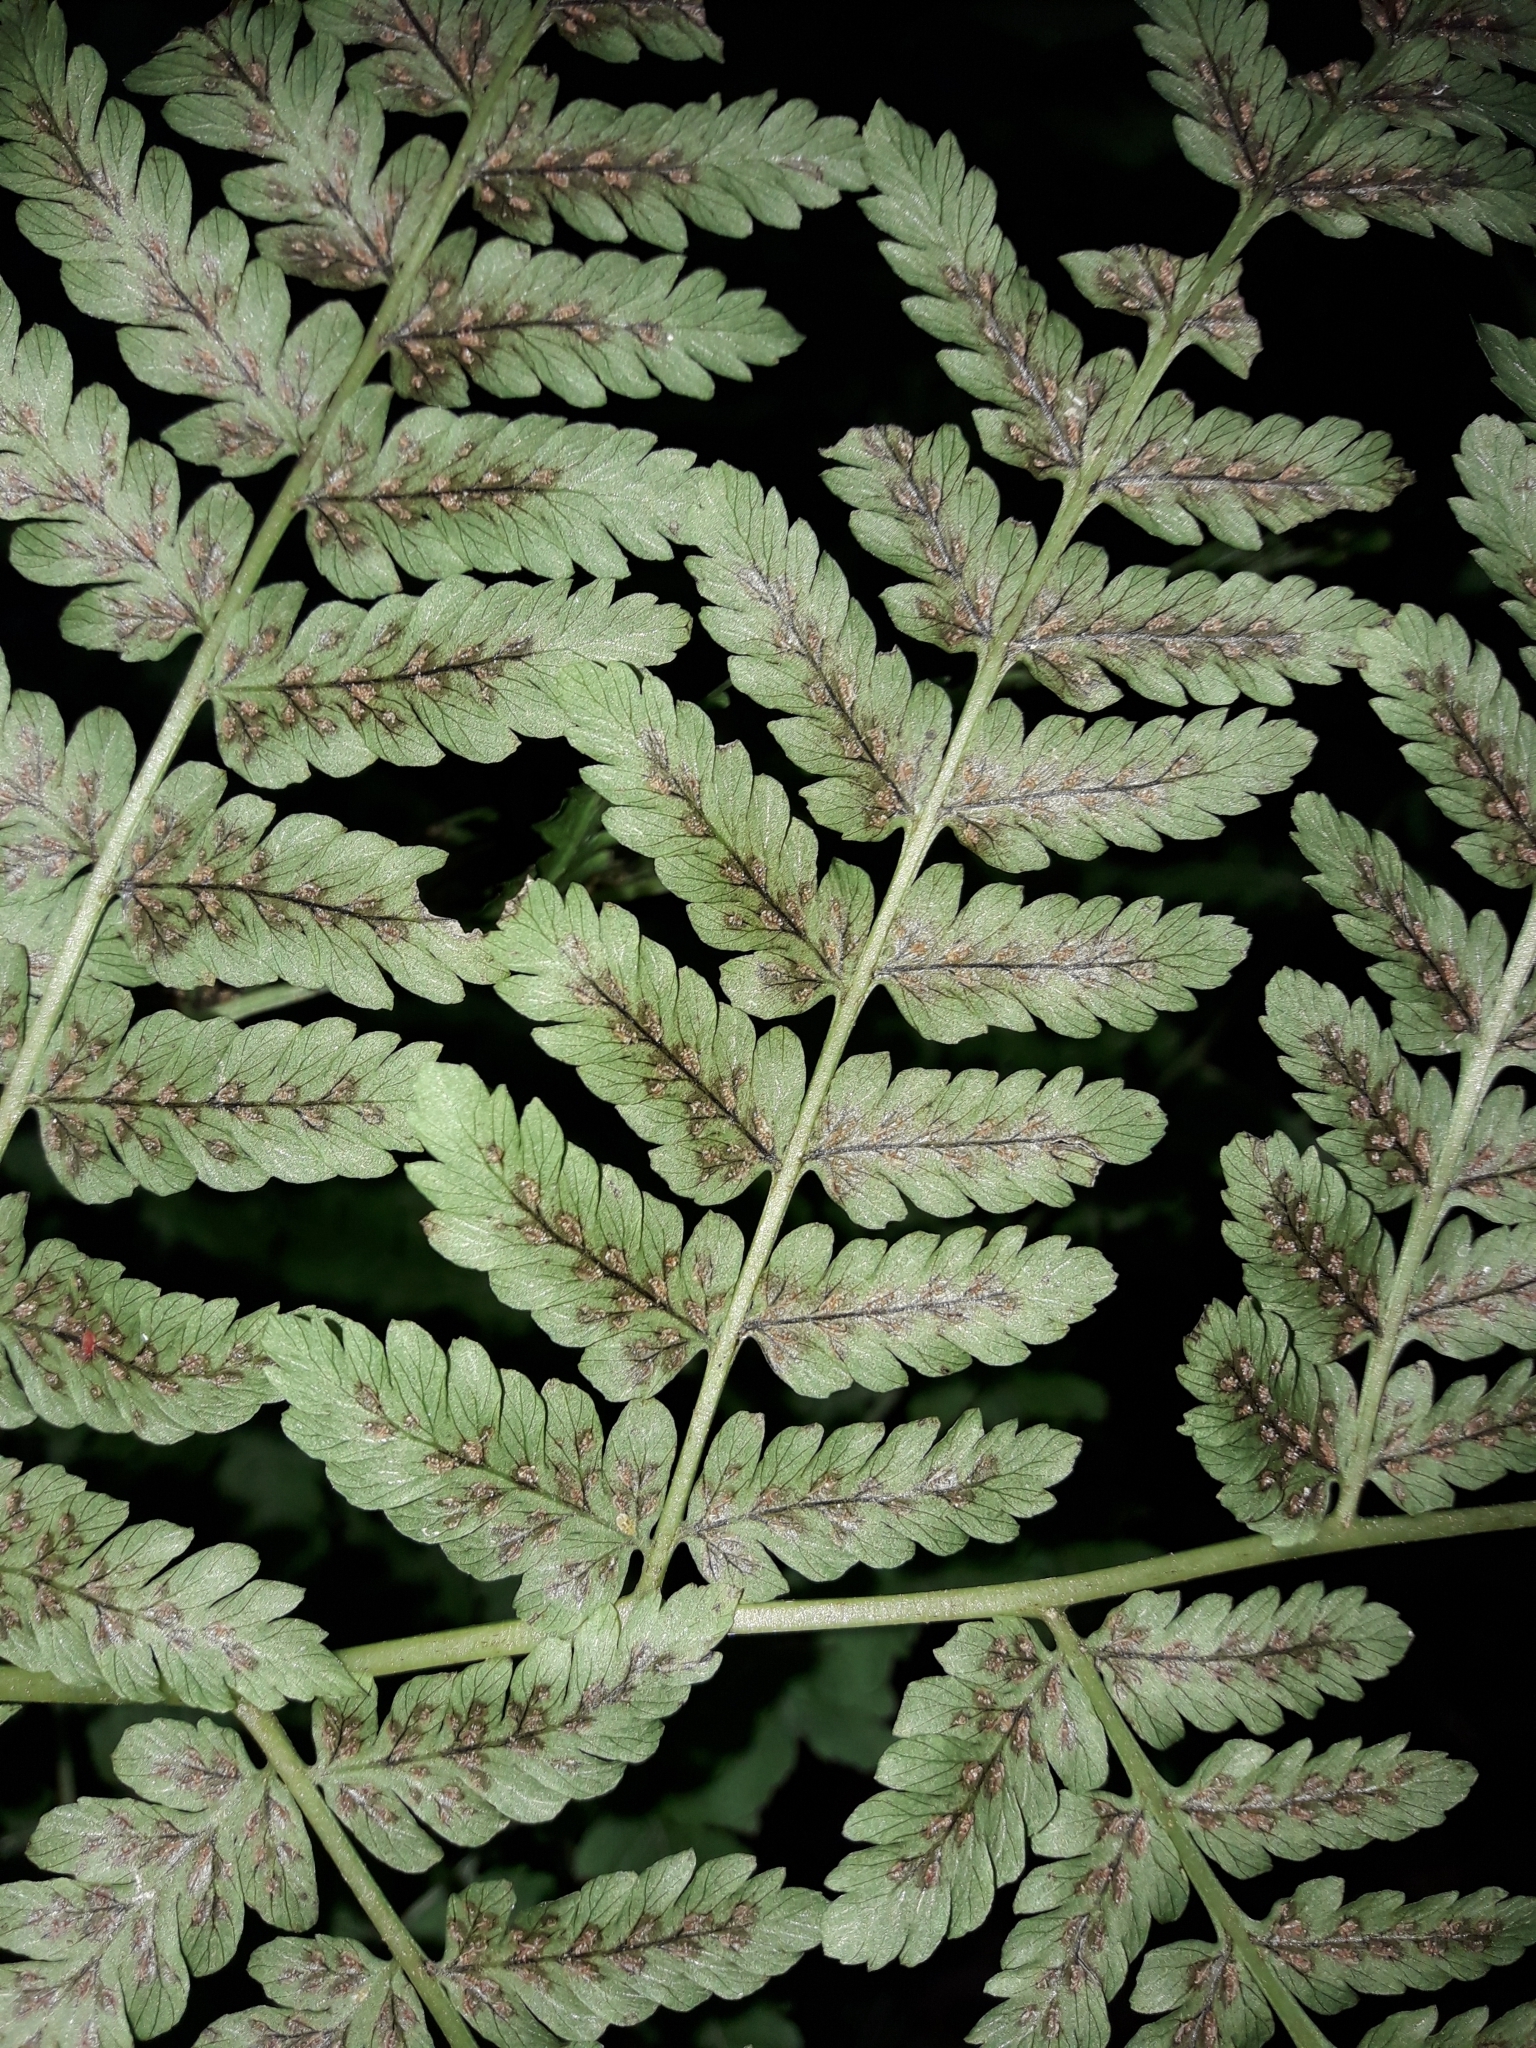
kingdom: Plantae
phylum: Tracheophyta
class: Polypodiopsida
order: Polypodiales
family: Athyriaceae
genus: Diplazium
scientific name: Diplazium australe
